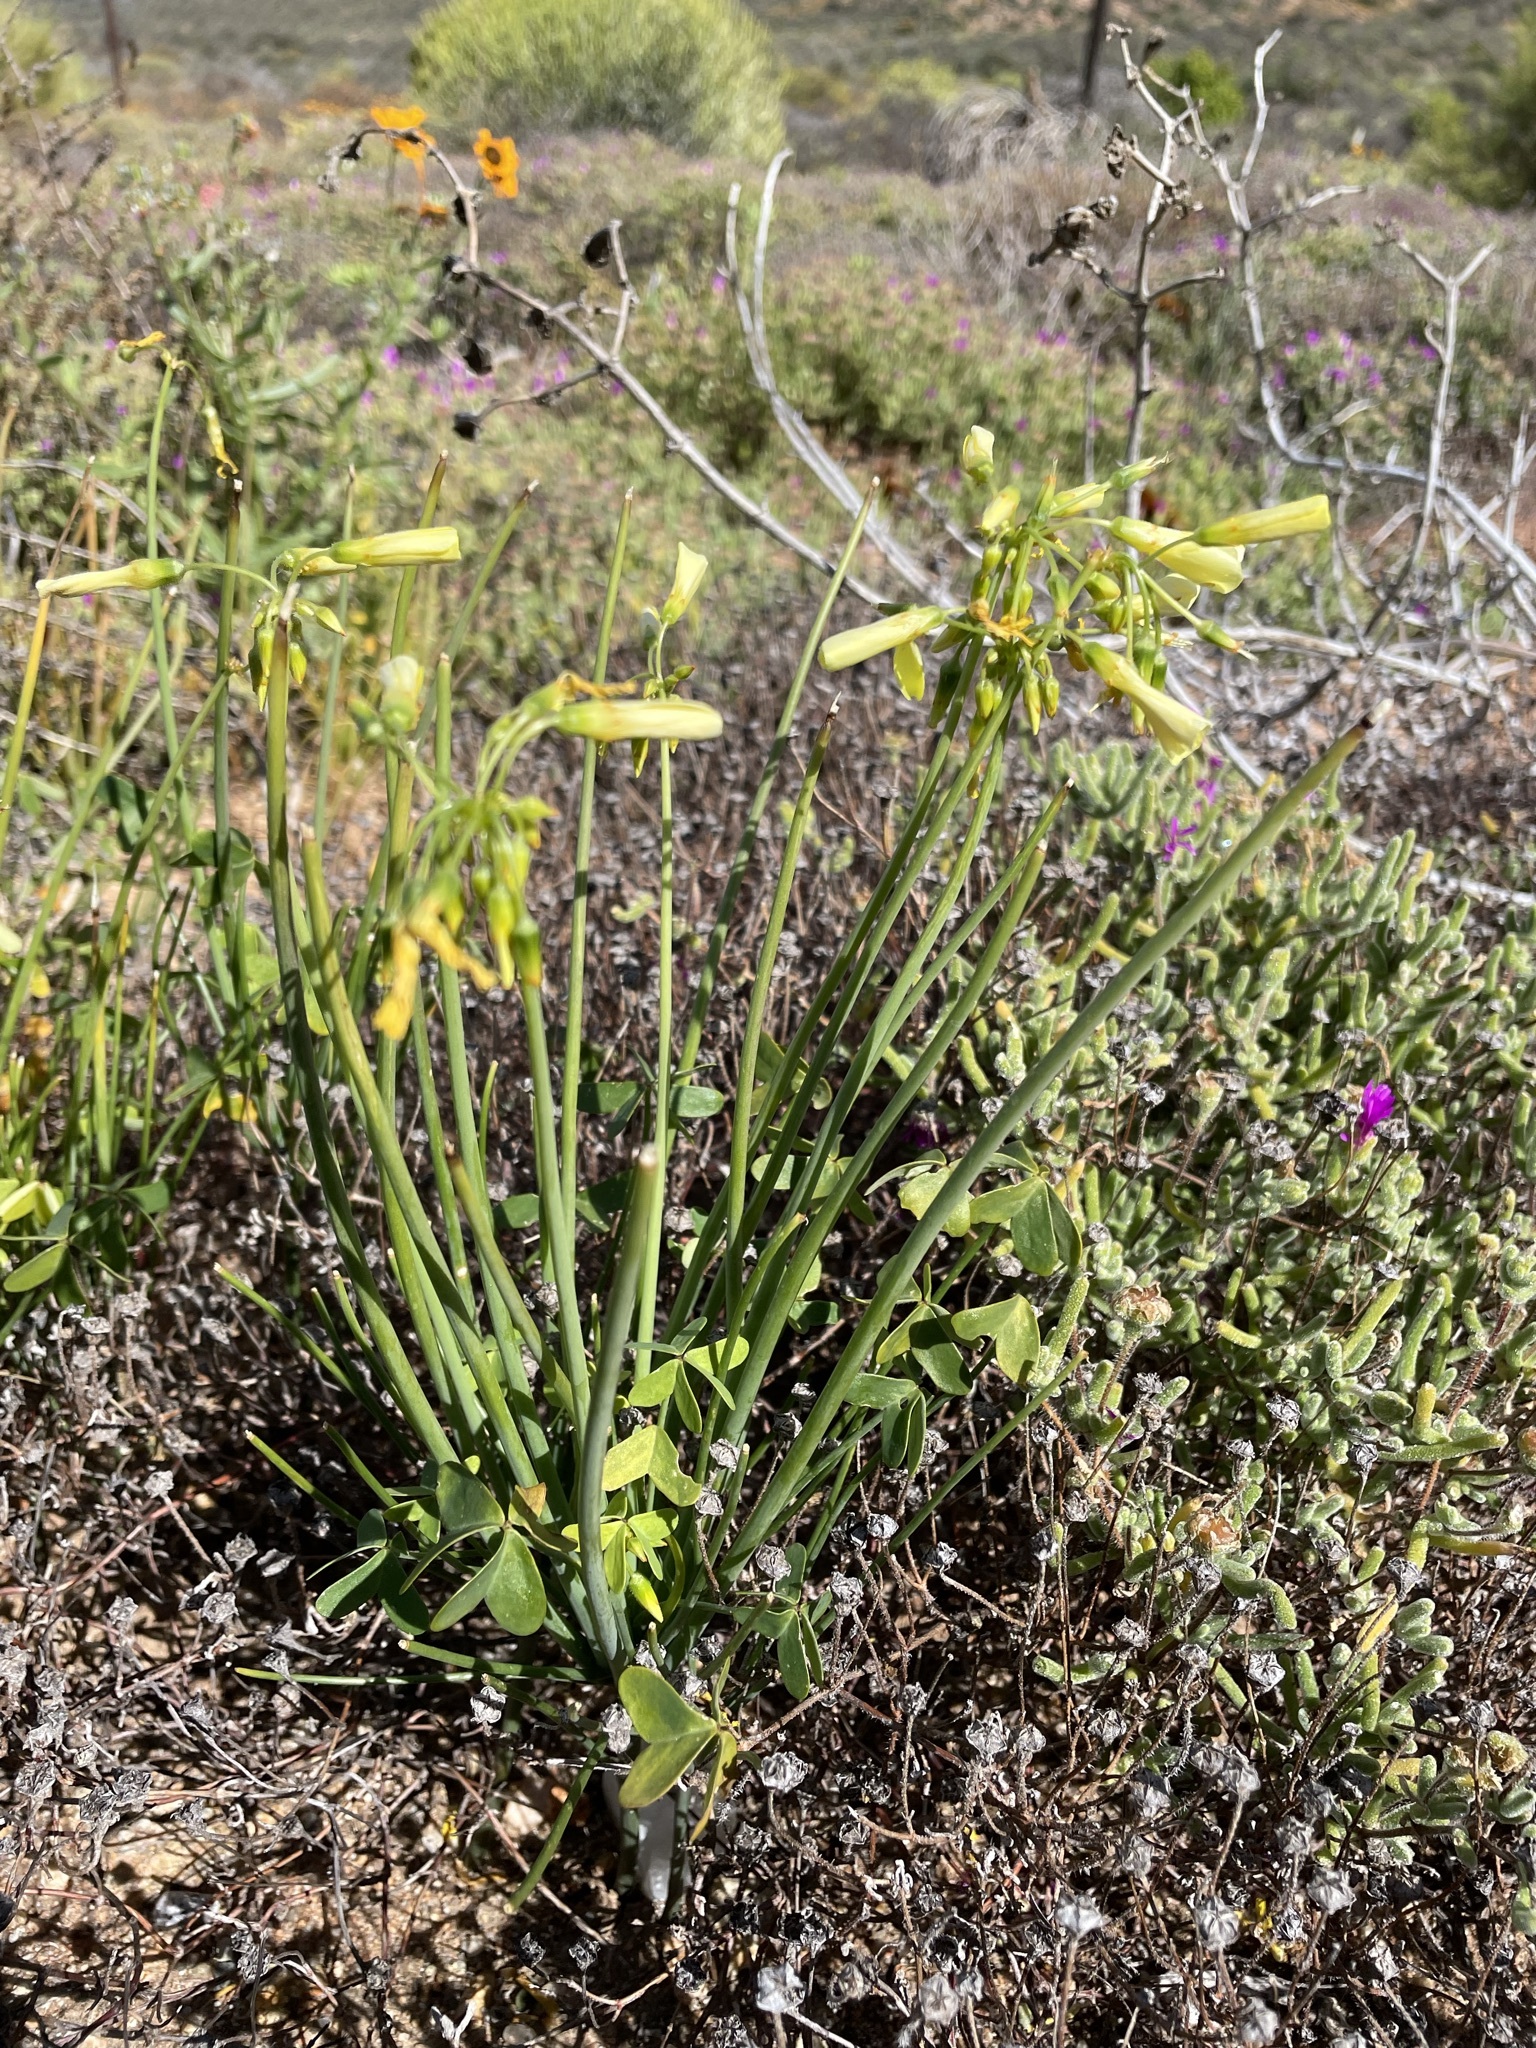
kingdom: Plantae
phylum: Tracheophyta
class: Magnoliopsida
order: Oxalidales
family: Oxalidaceae
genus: Oxalis
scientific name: Oxalis pes-caprae
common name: Bermuda-buttercup
